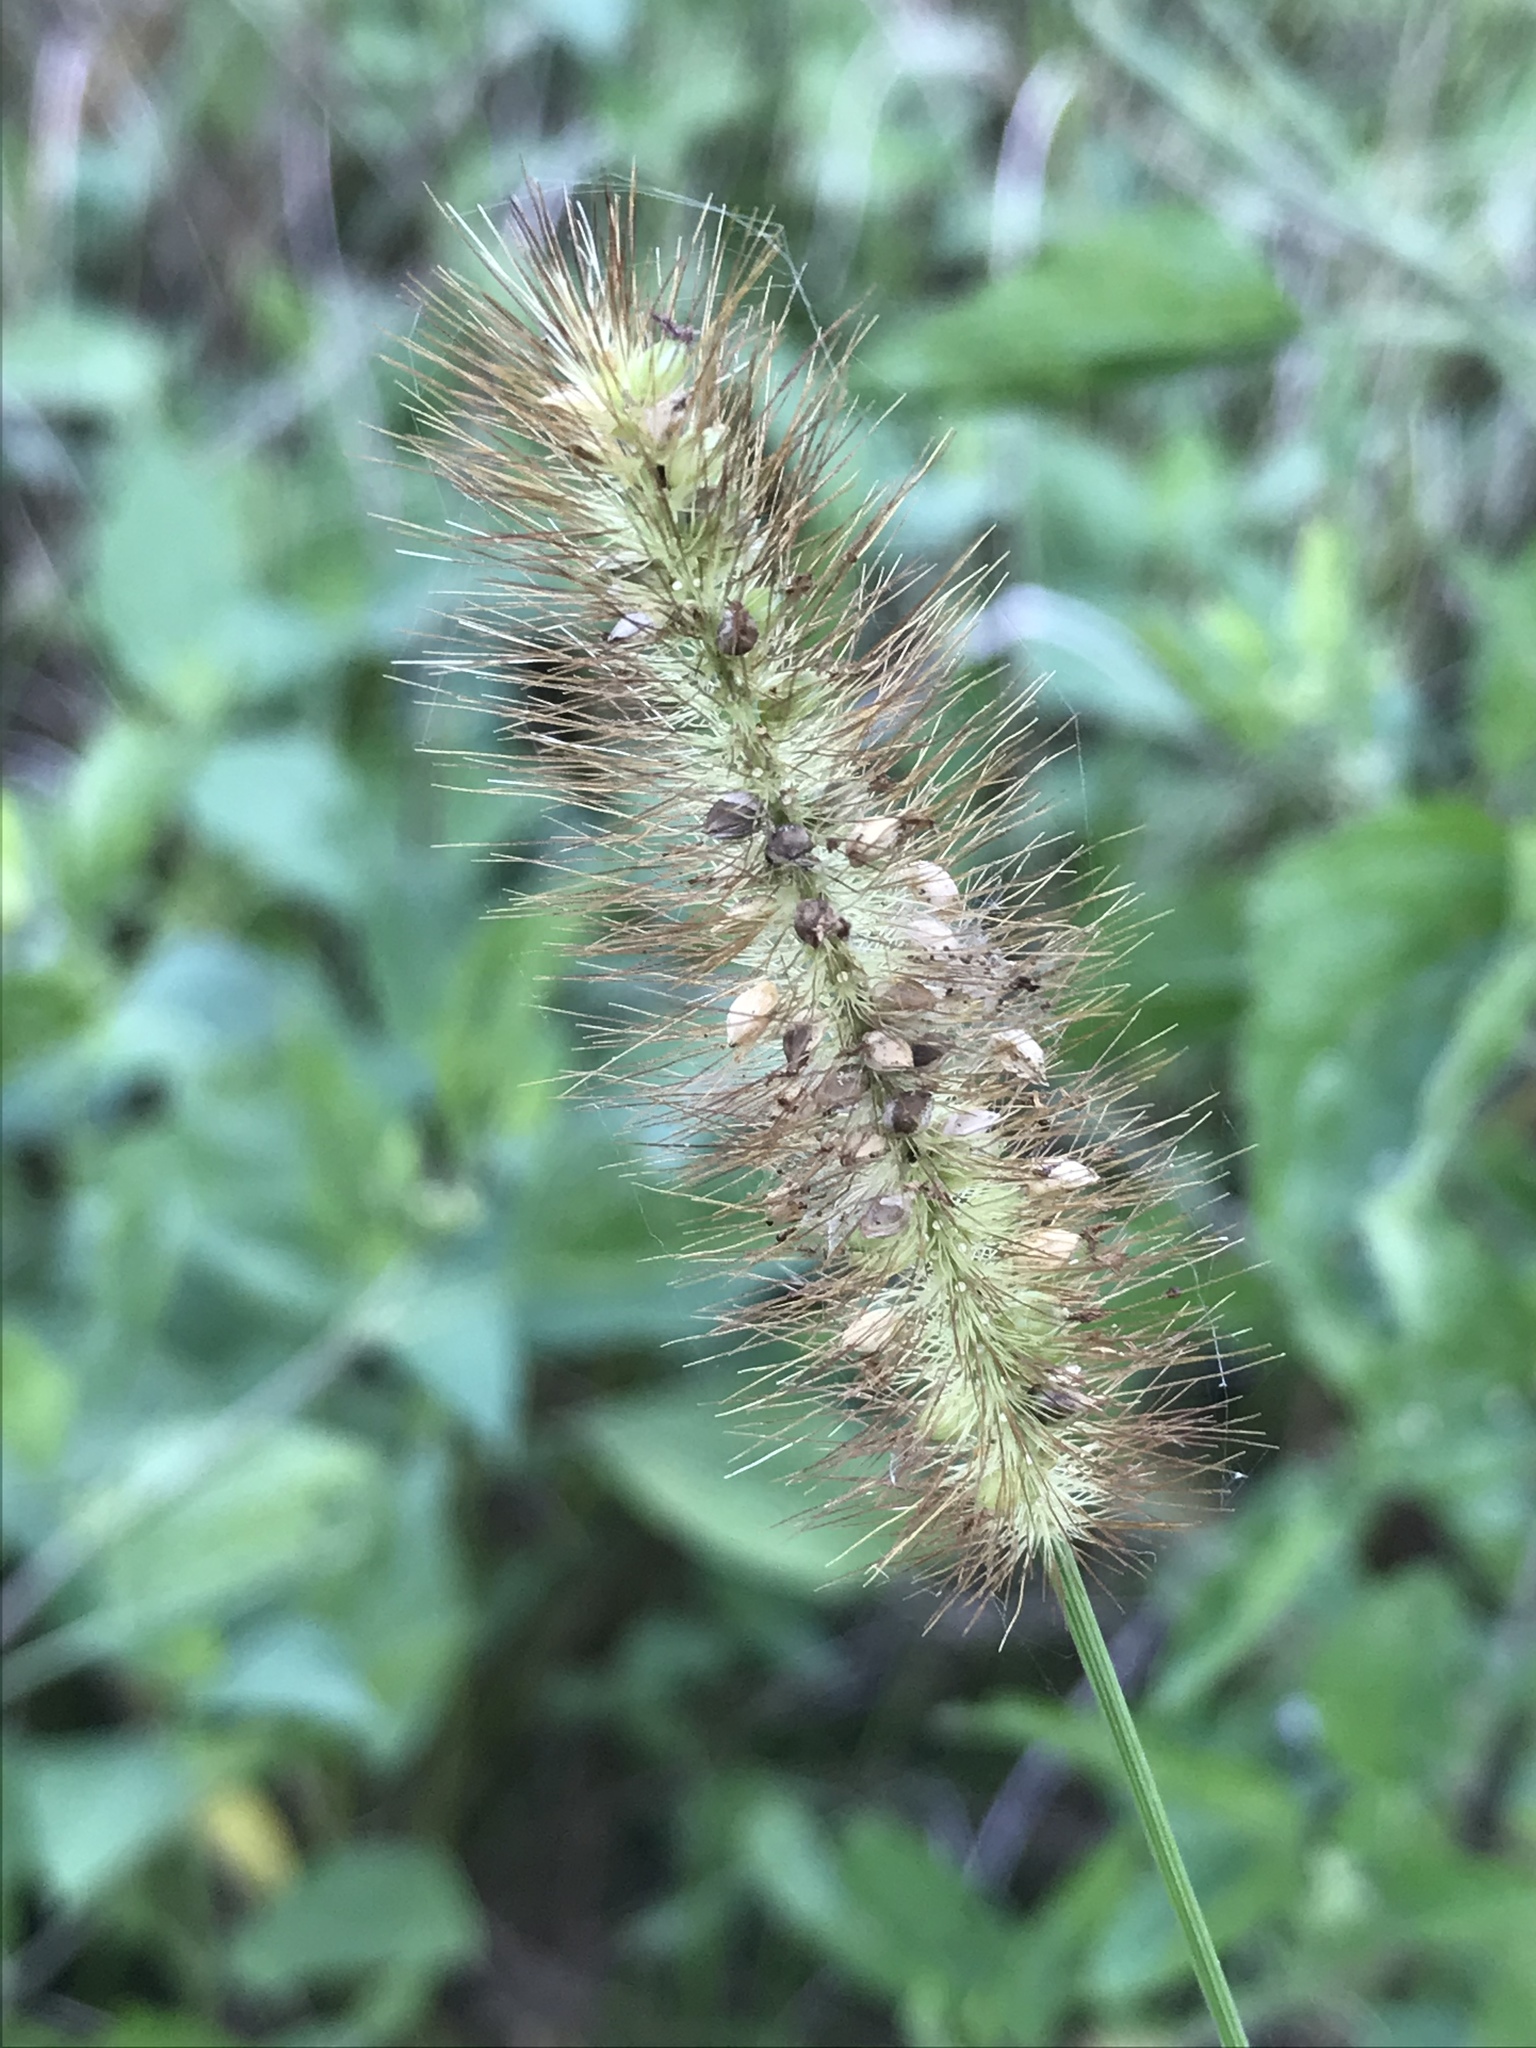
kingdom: Plantae
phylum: Tracheophyta
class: Liliopsida
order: Poales
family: Poaceae
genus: Setaria
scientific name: Setaria parviflora
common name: Knotroot bristle-grass
